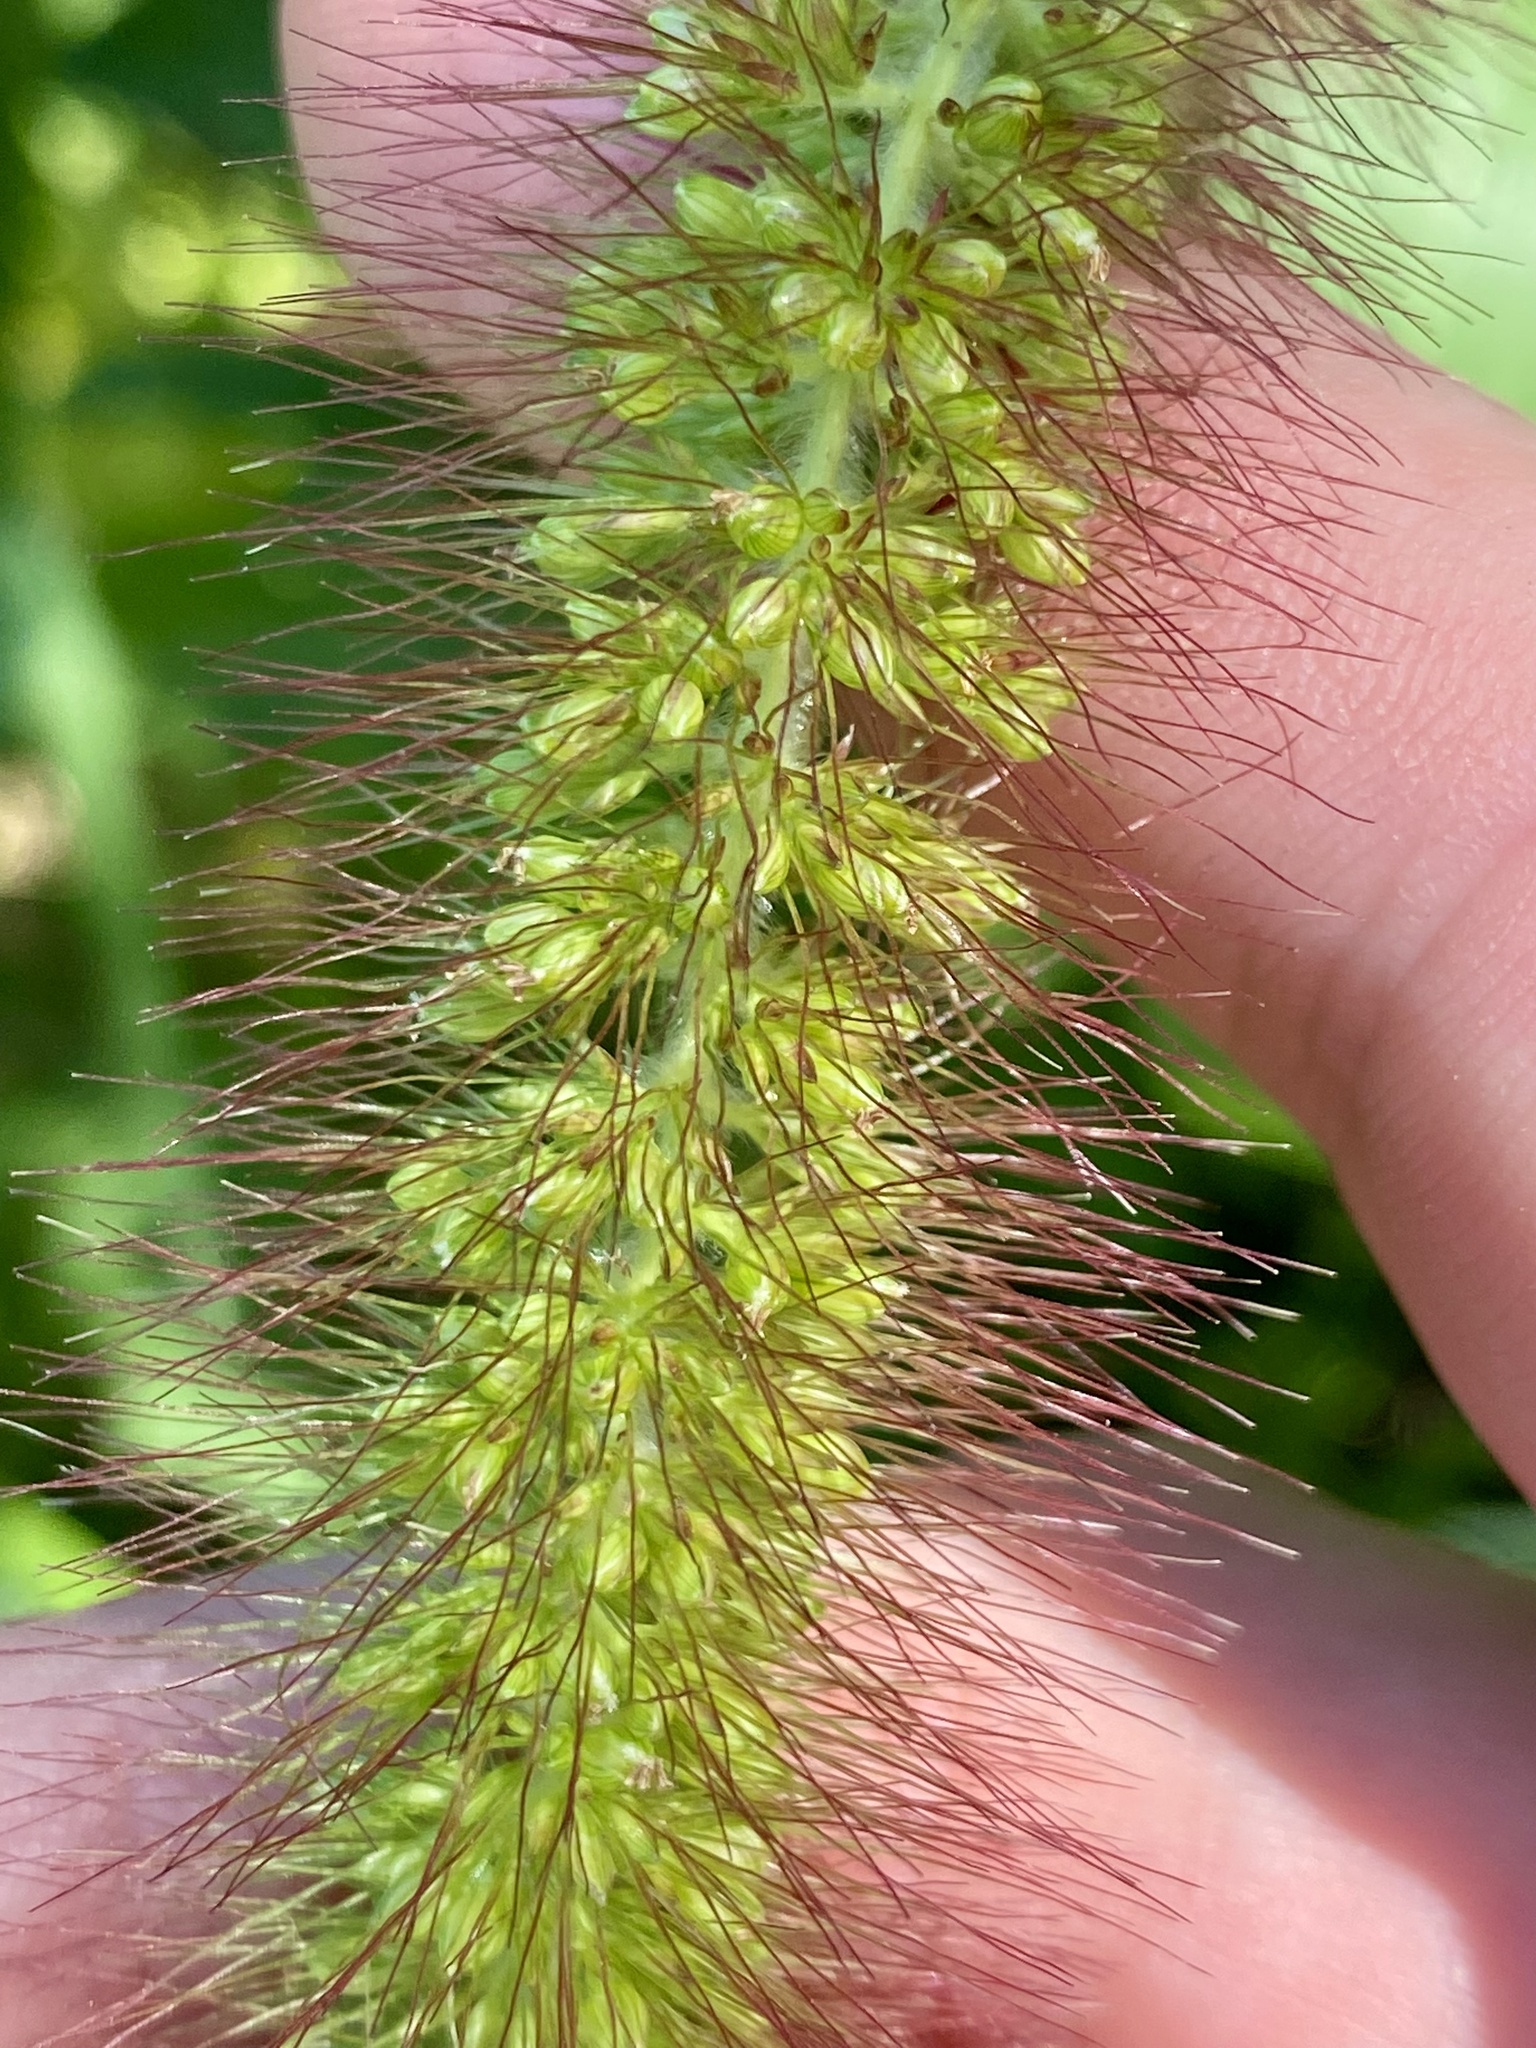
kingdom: Plantae
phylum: Tracheophyta
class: Liliopsida
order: Poales
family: Poaceae
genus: Setaria
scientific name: Setaria faberi
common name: Nodding bristle-grass
